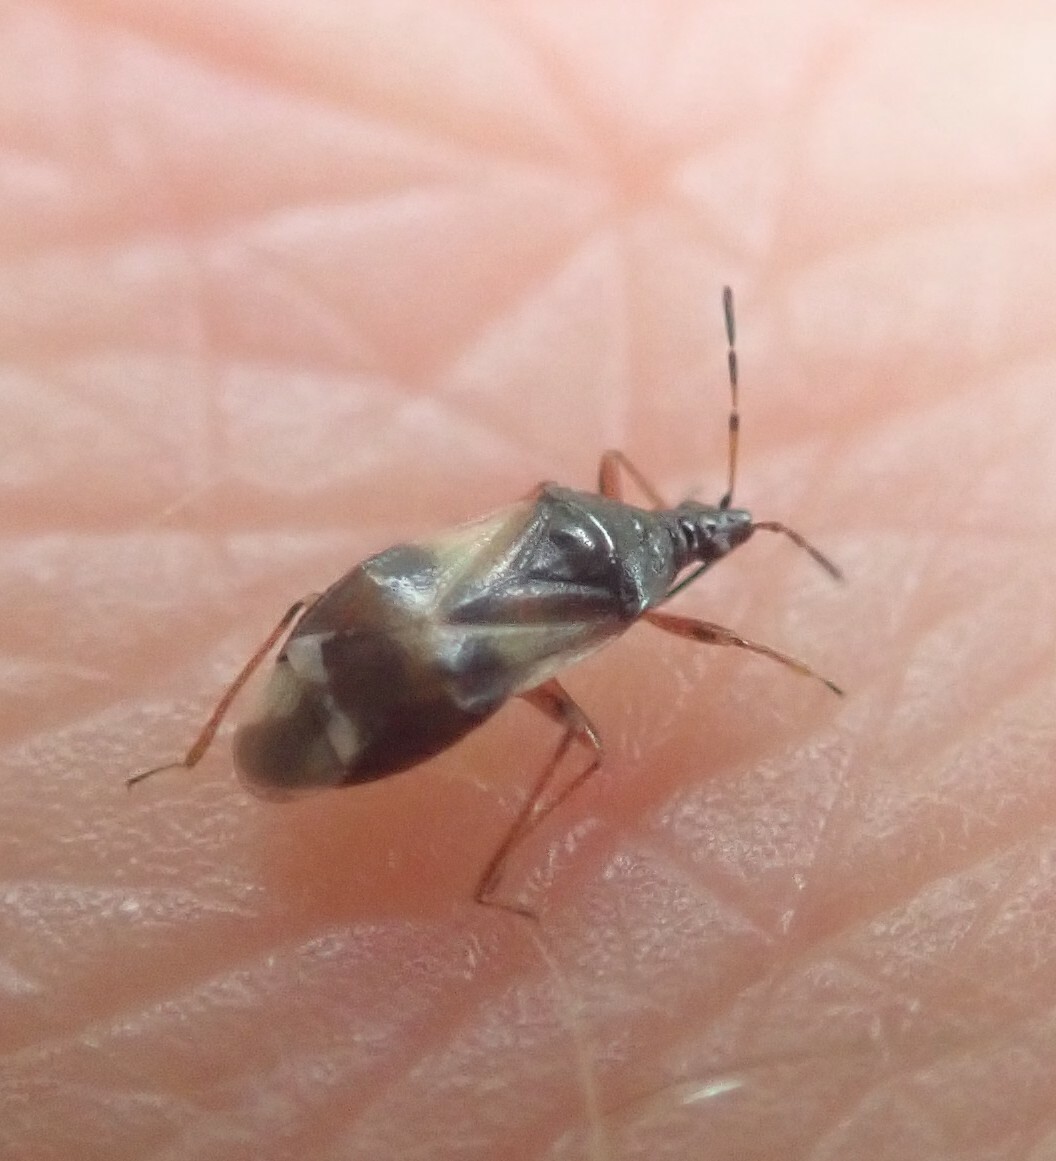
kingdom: Animalia
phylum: Arthropoda
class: Insecta
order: Hemiptera
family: Anthocoridae
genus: Anthocoris
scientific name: Anthocoris nemorum
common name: Minute pirate bug
